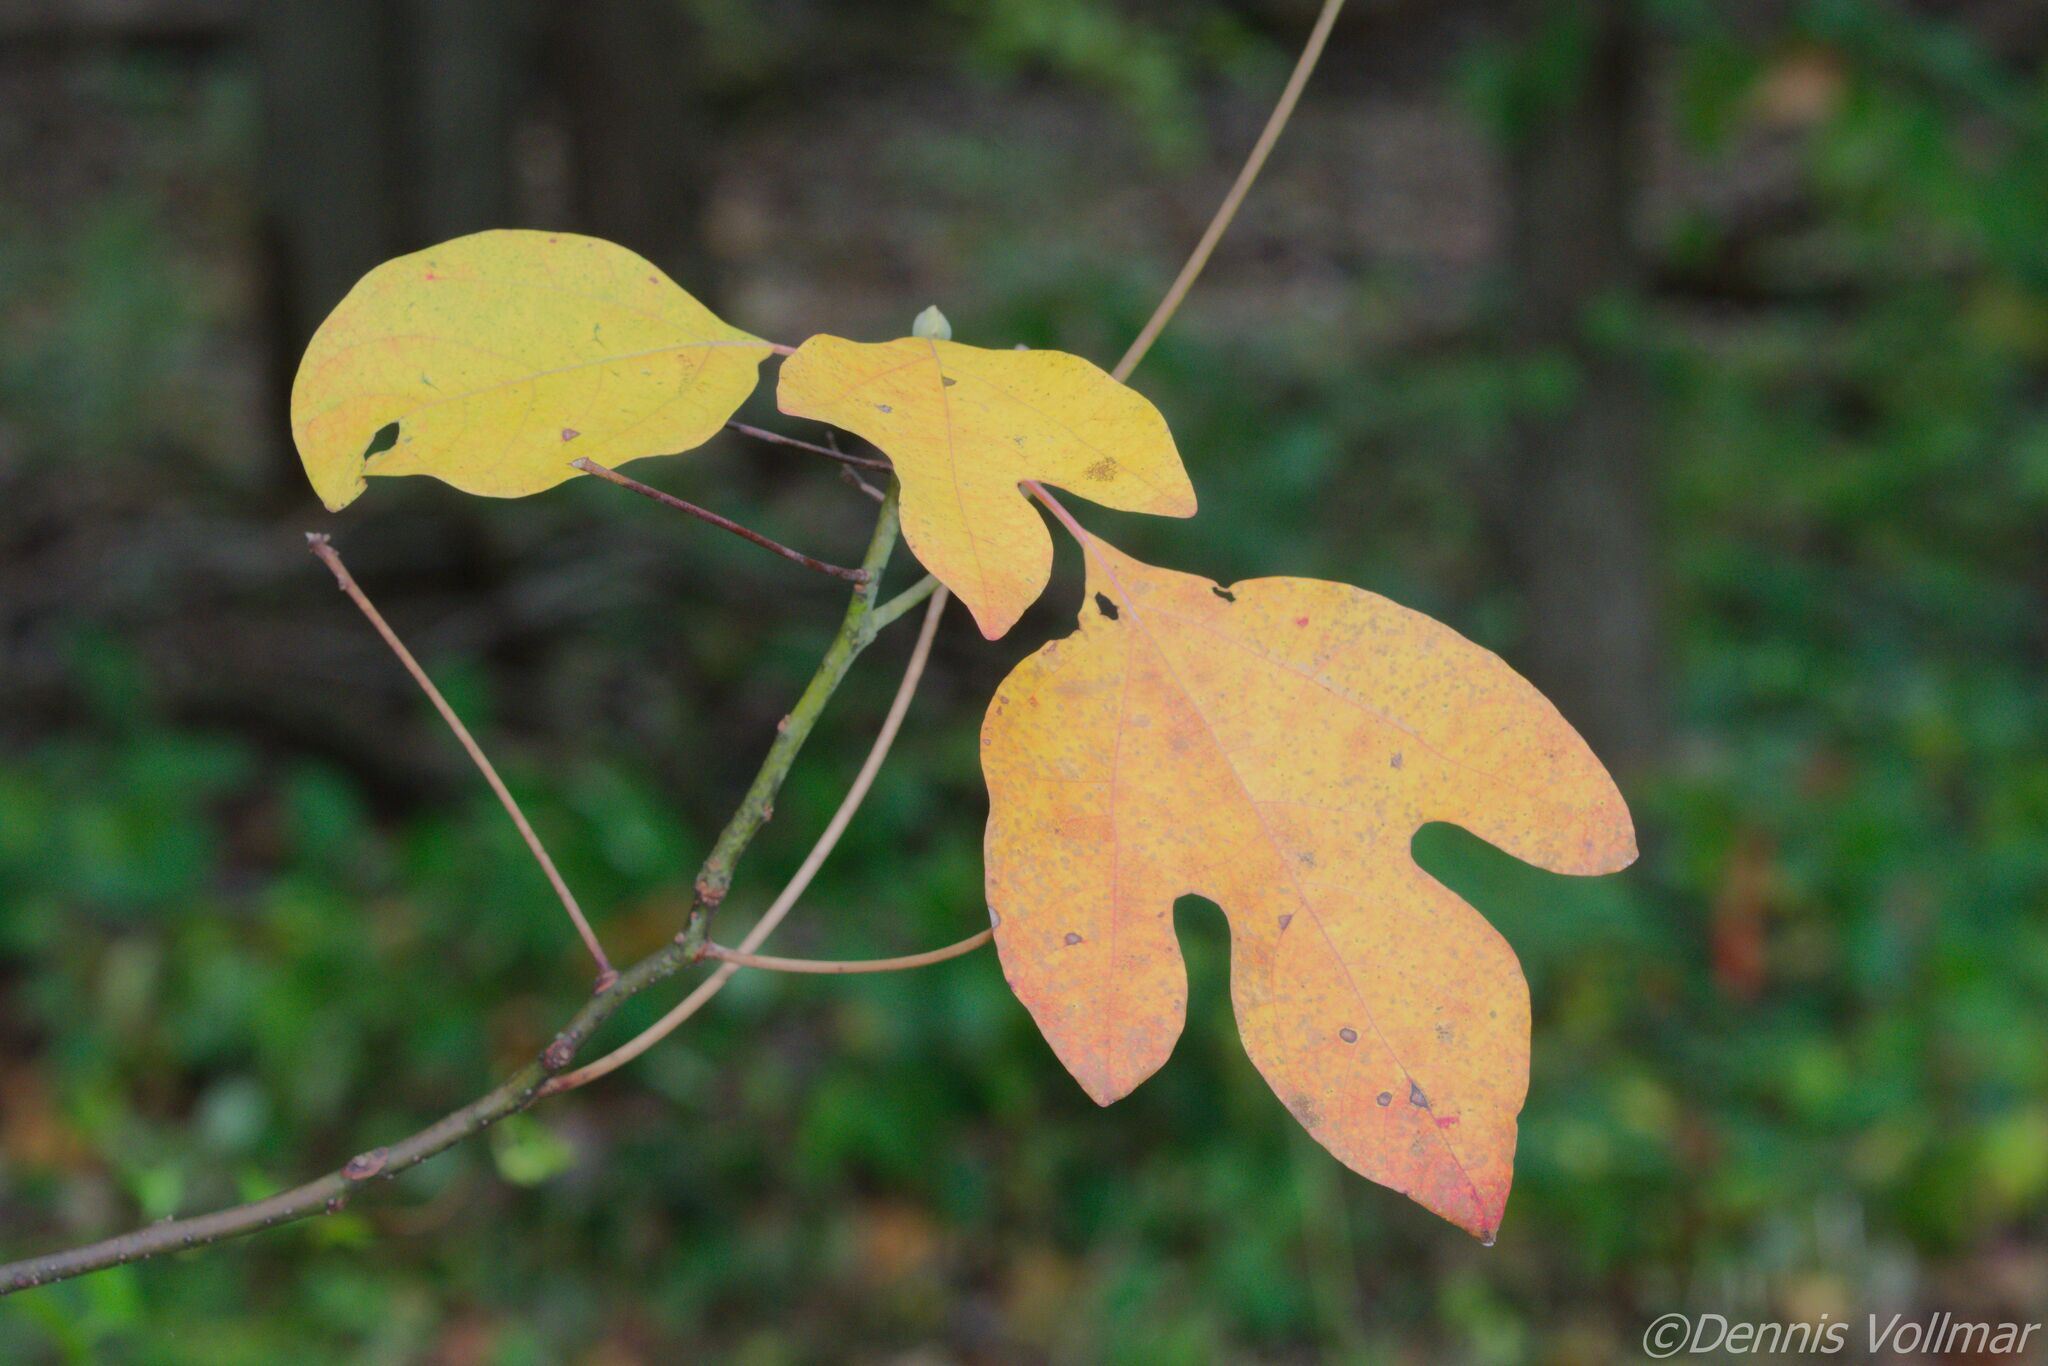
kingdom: Plantae
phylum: Tracheophyta
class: Magnoliopsida
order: Laurales
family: Lauraceae
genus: Sassafras
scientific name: Sassafras albidum
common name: Sassafras
